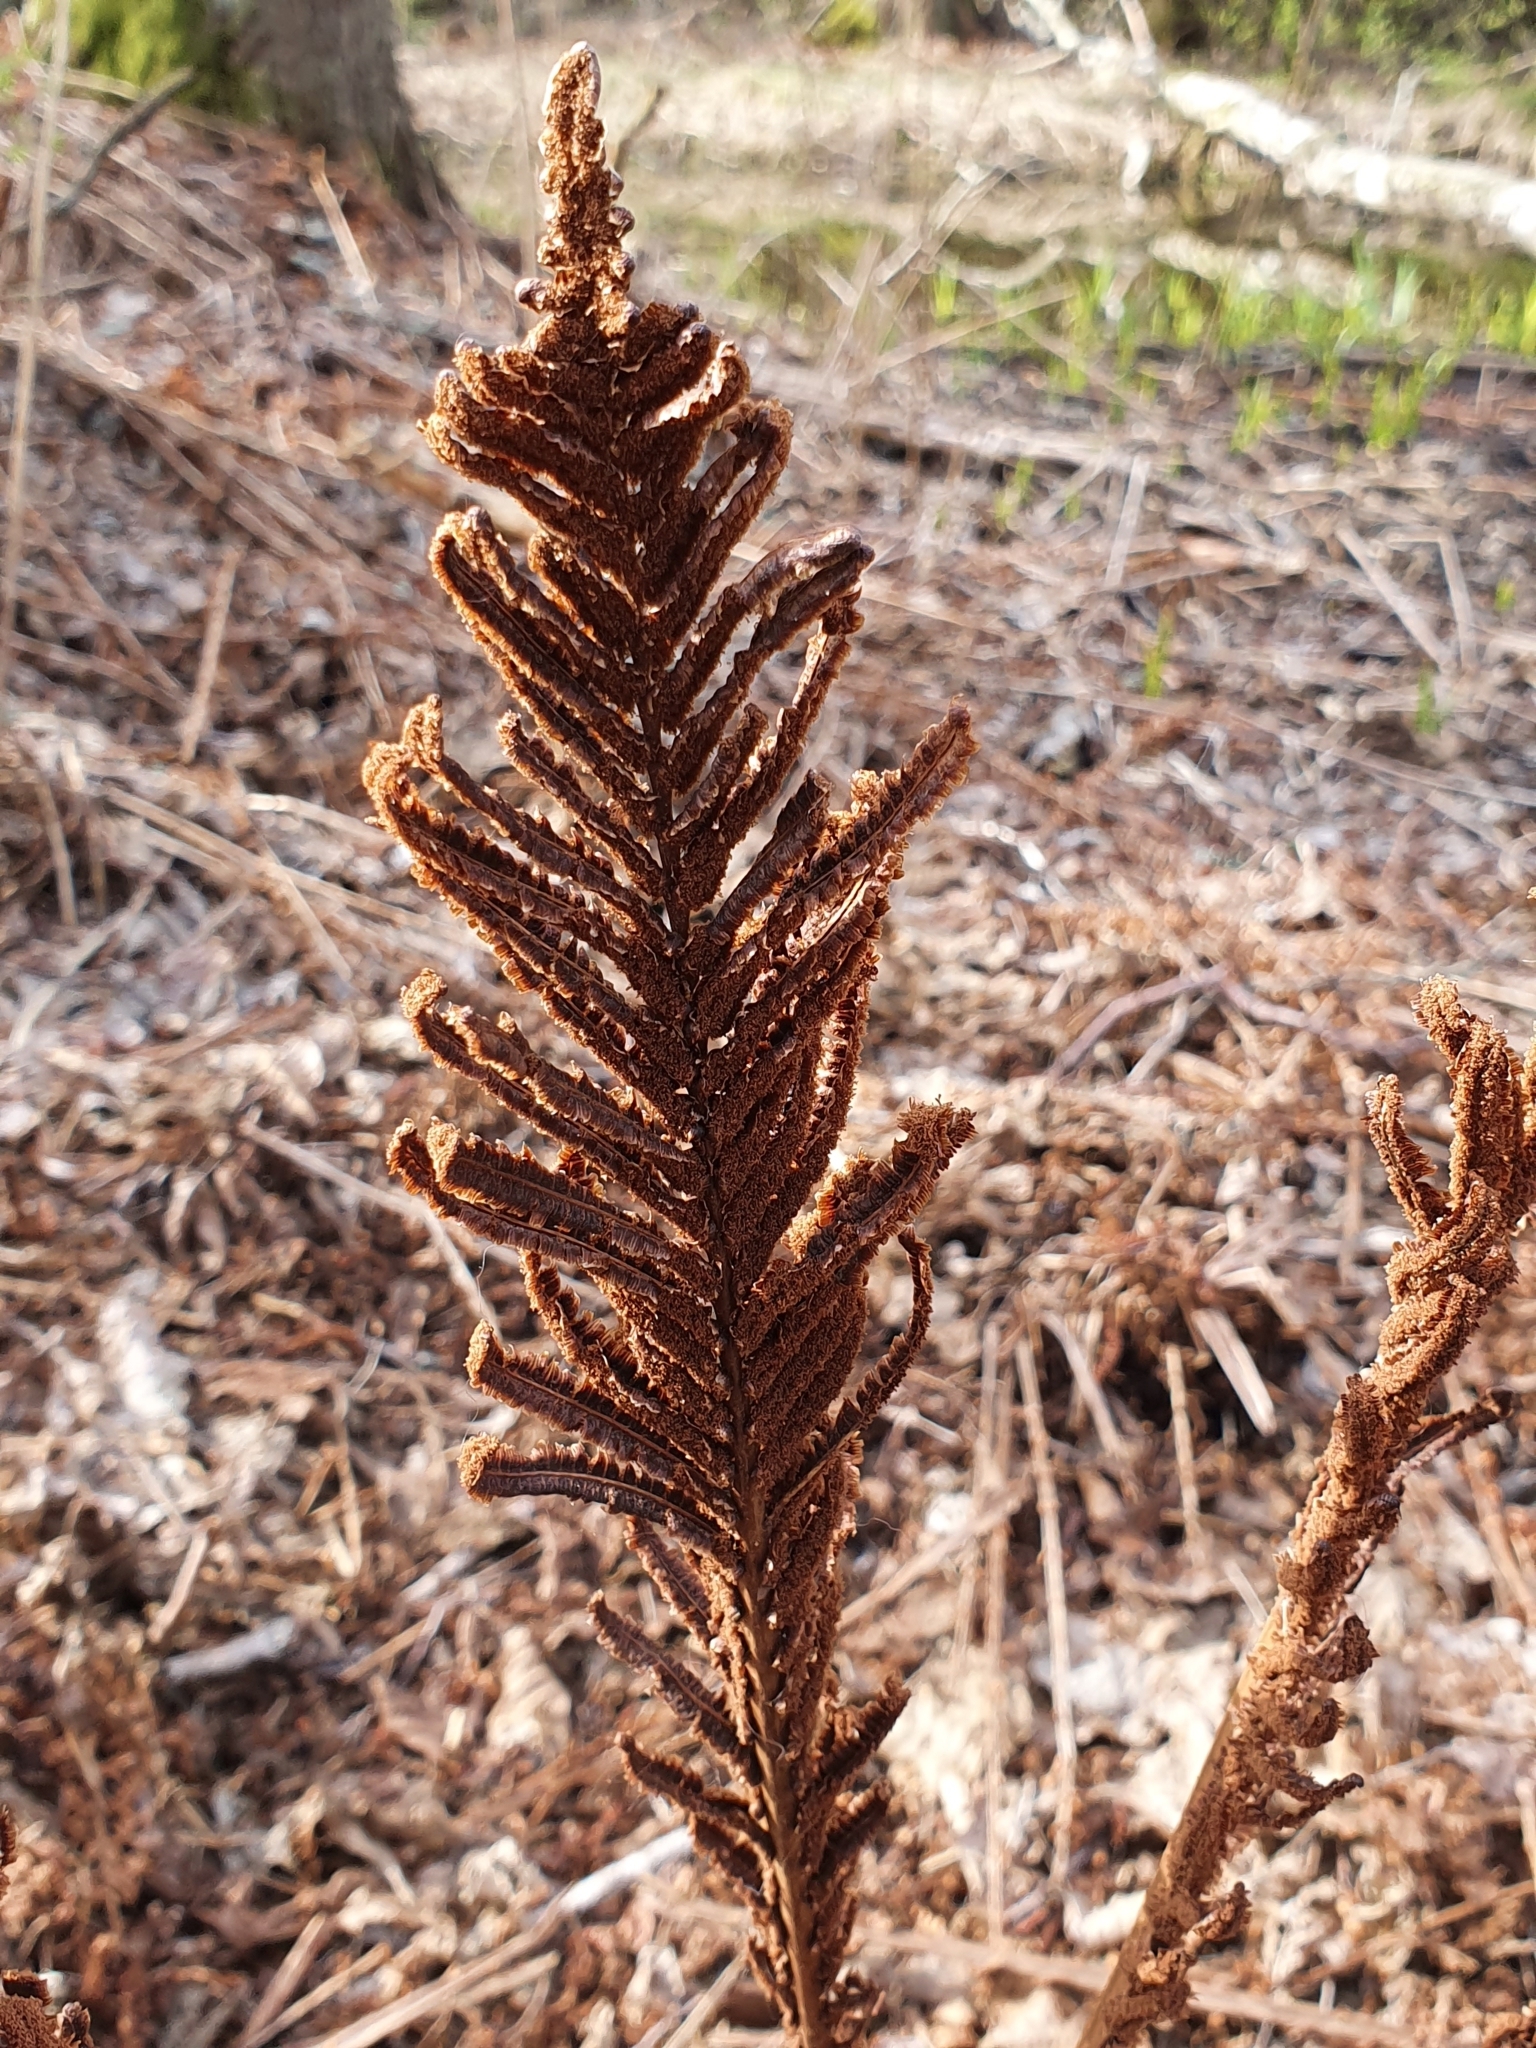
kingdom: Plantae
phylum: Tracheophyta
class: Polypodiopsida
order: Polypodiales
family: Onocleaceae
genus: Matteuccia
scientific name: Matteuccia struthiopteris
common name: Ostrich fern
